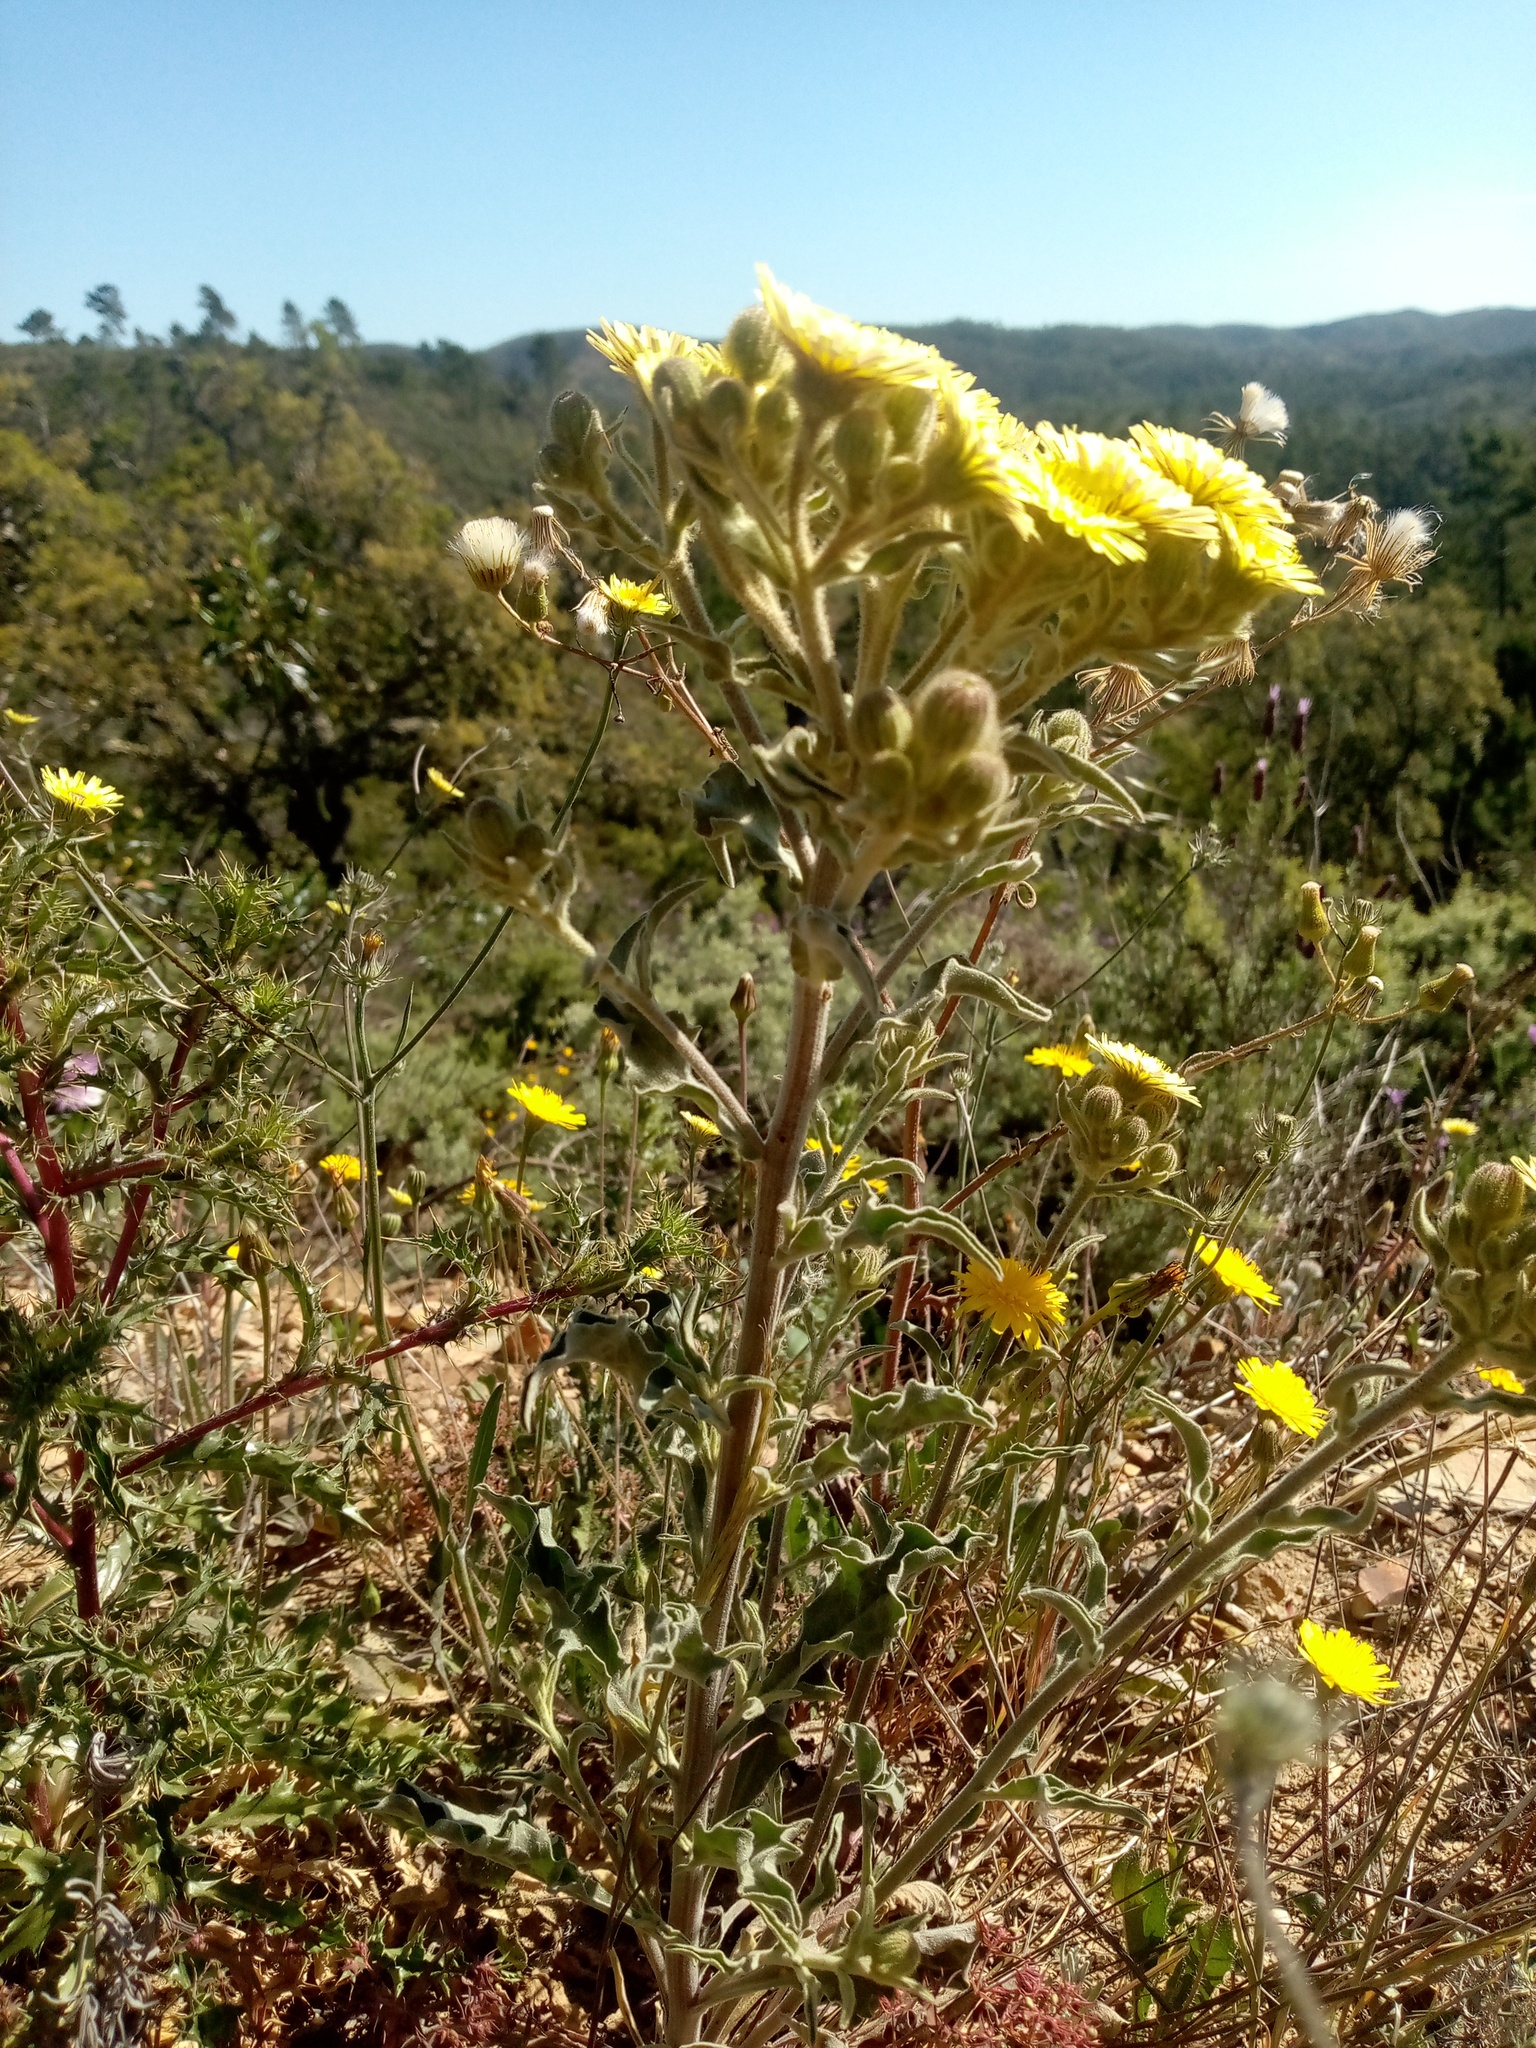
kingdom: Plantae
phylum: Tracheophyta
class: Magnoliopsida
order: Asterales
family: Asteraceae
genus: Andryala
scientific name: Andryala integrifolia
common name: Common andryala
